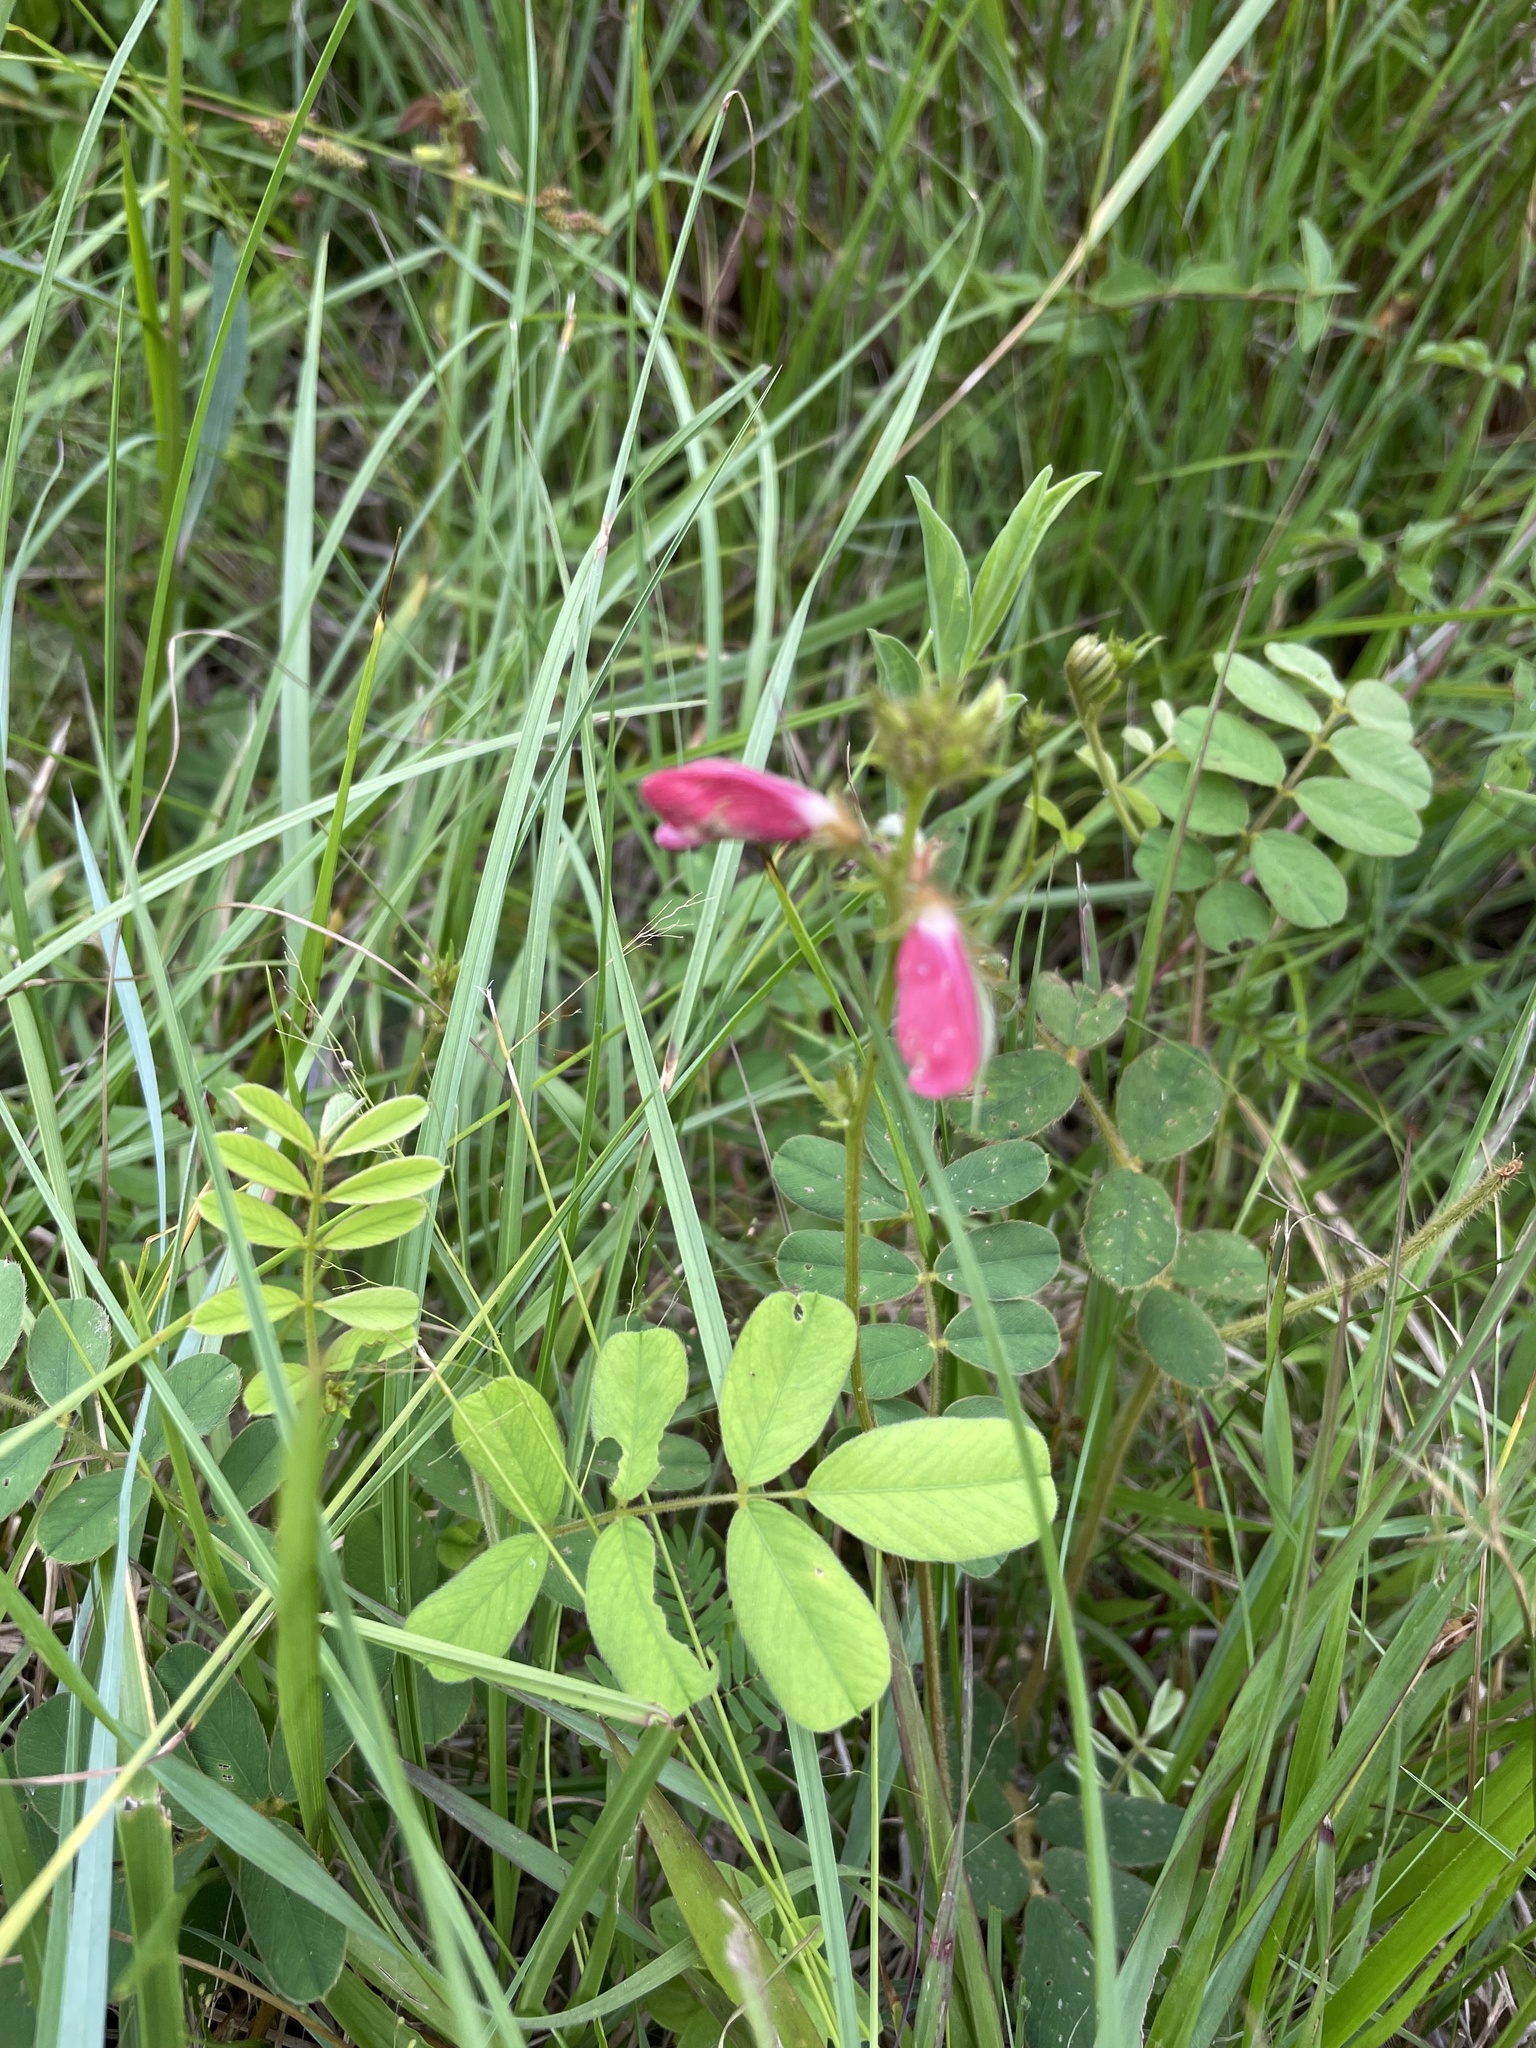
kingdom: Plantae
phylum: Tracheophyta
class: Magnoliopsida
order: Fabales
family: Fabaceae
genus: Tephrosia
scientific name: Tephrosia spicata
